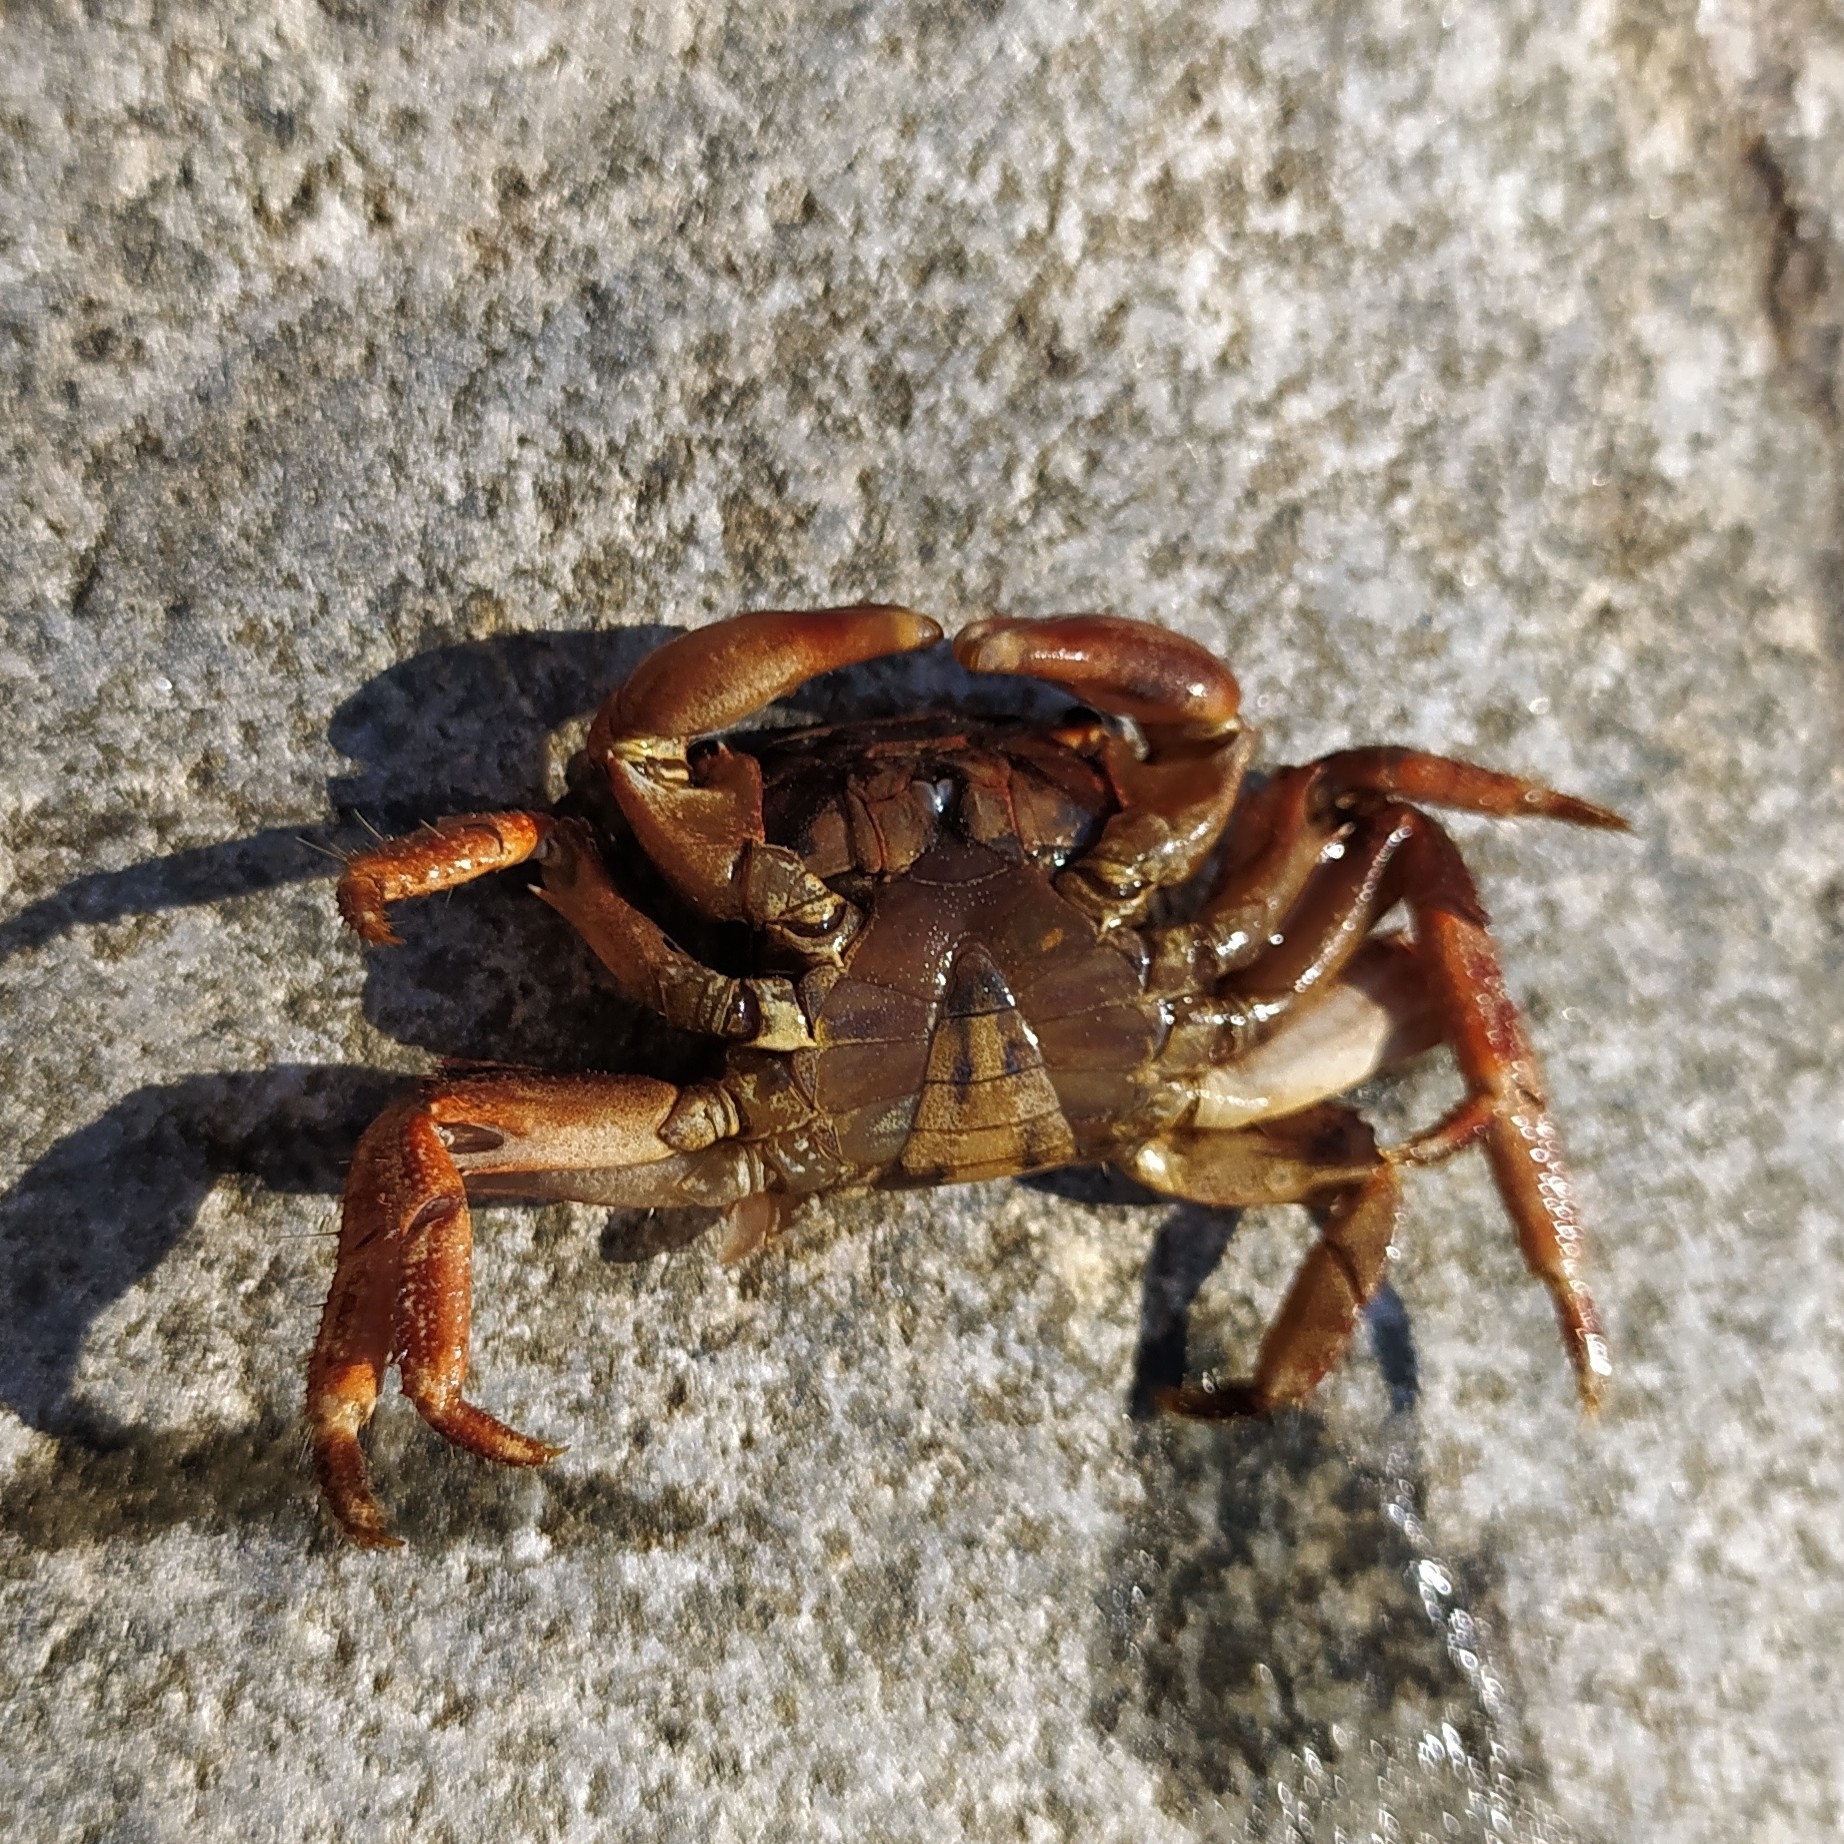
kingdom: Animalia
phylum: Arthropoda
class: Malacostraca
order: Decapoda
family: Grapsidae
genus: Pachygrapsus
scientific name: Pachygrapsus marmoratus
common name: Marbled rock crab
